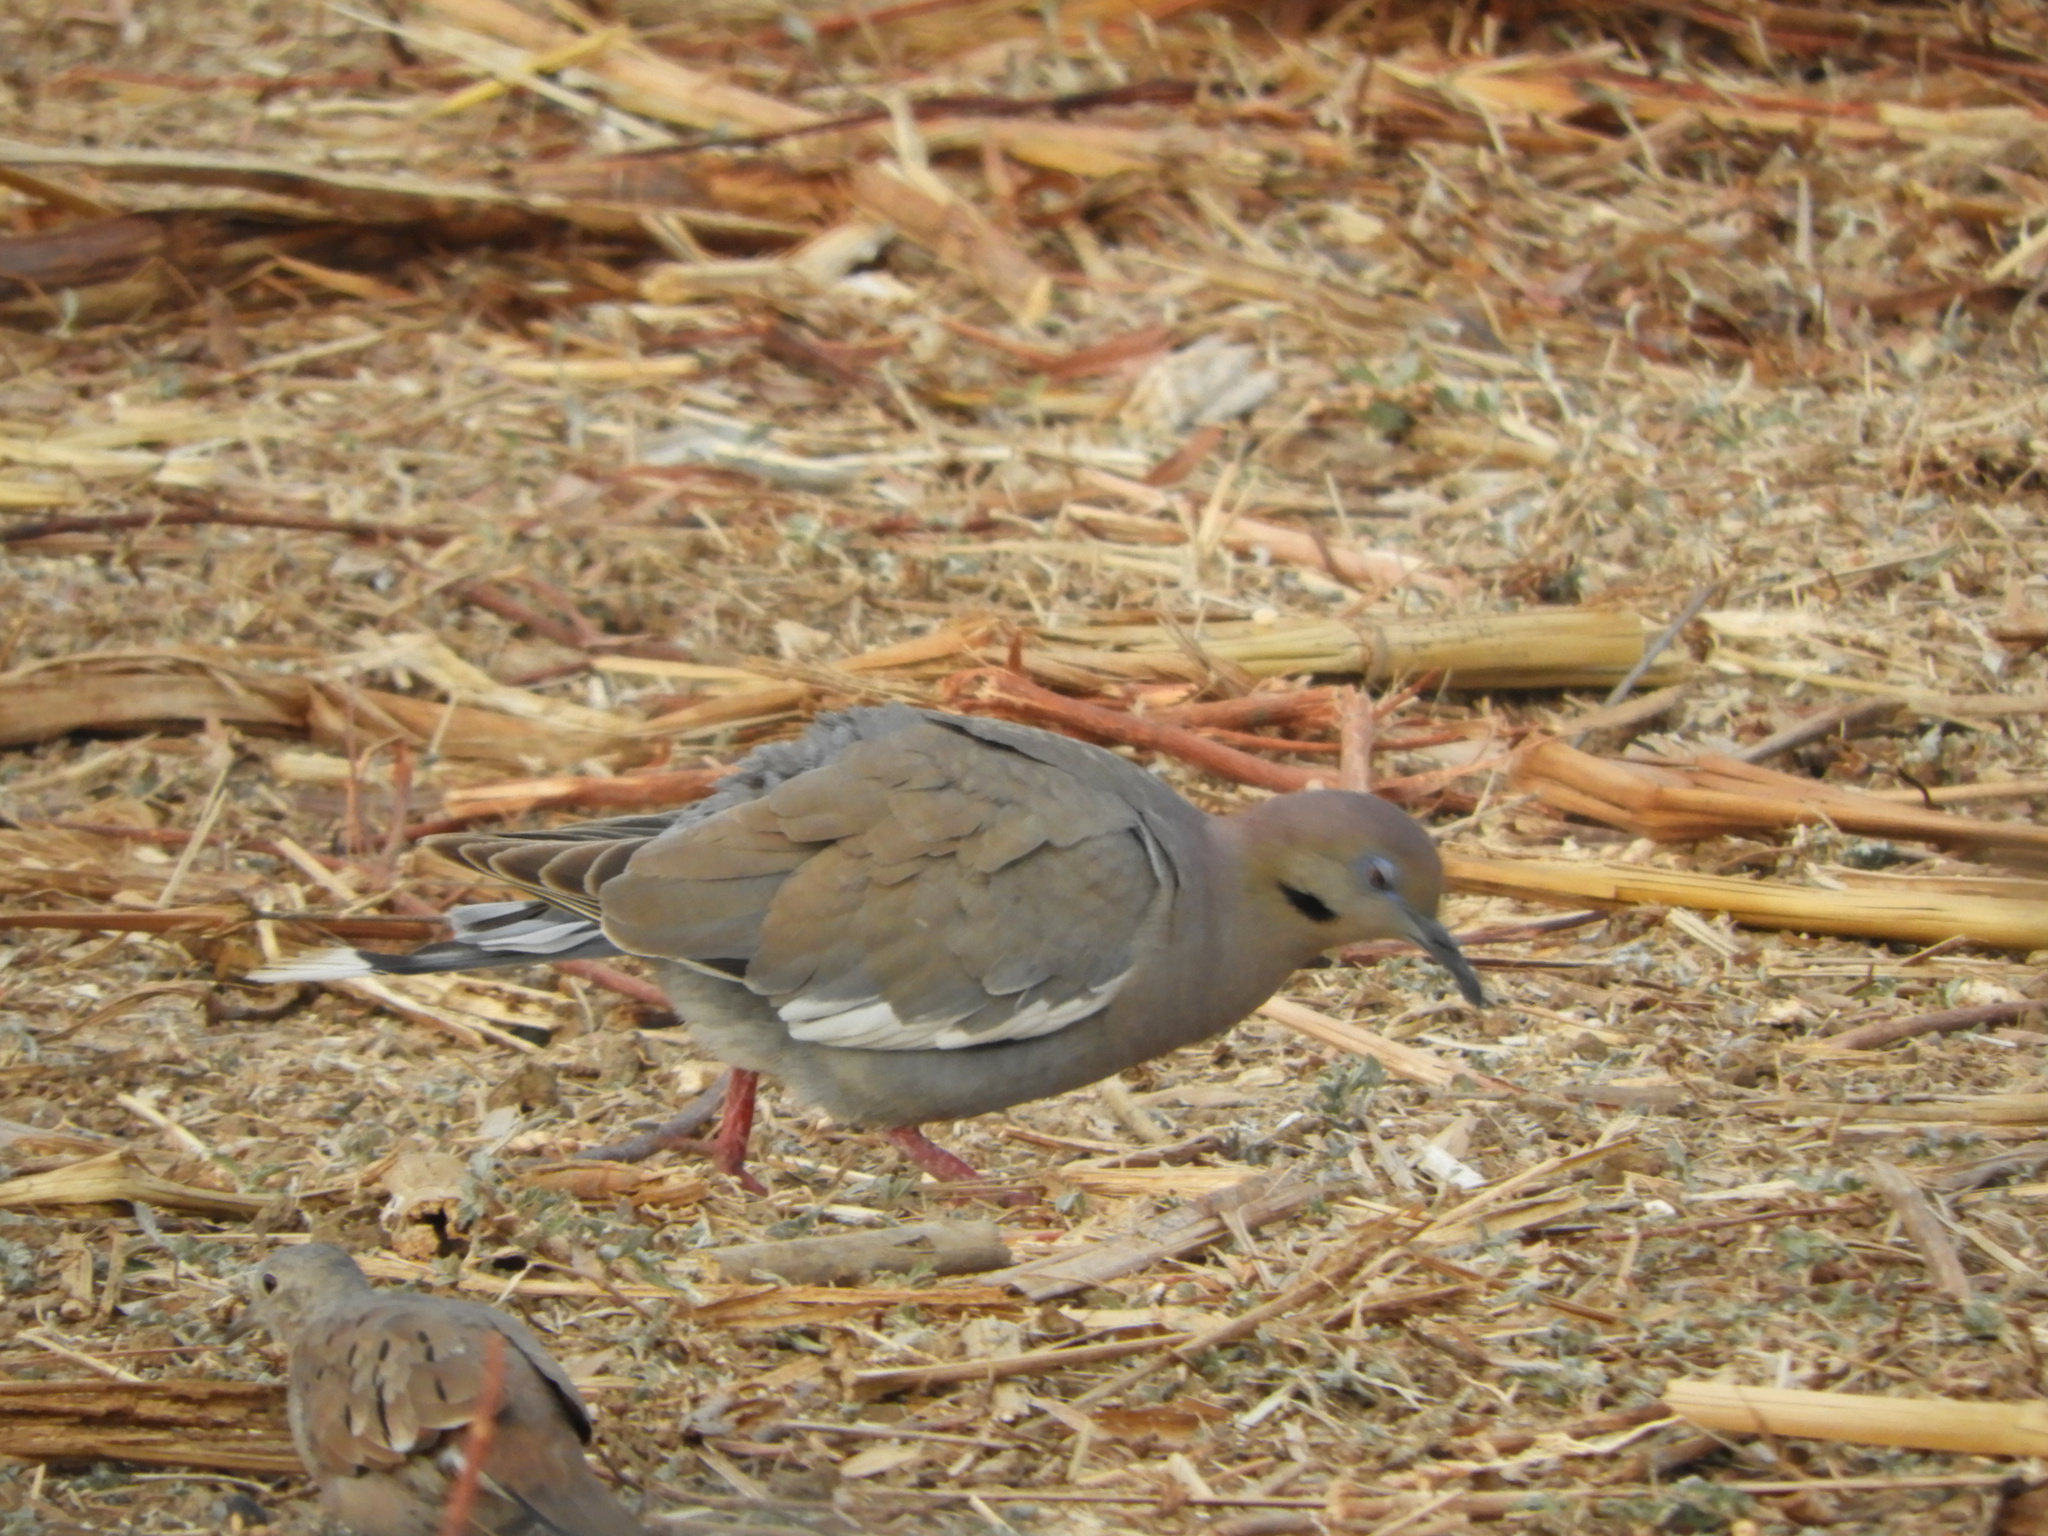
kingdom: Animalia
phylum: Chordata
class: Aves
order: Columbiformes
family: Columbidae
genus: Zenaida
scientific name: Zenaida asiatica
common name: White-winged dove
